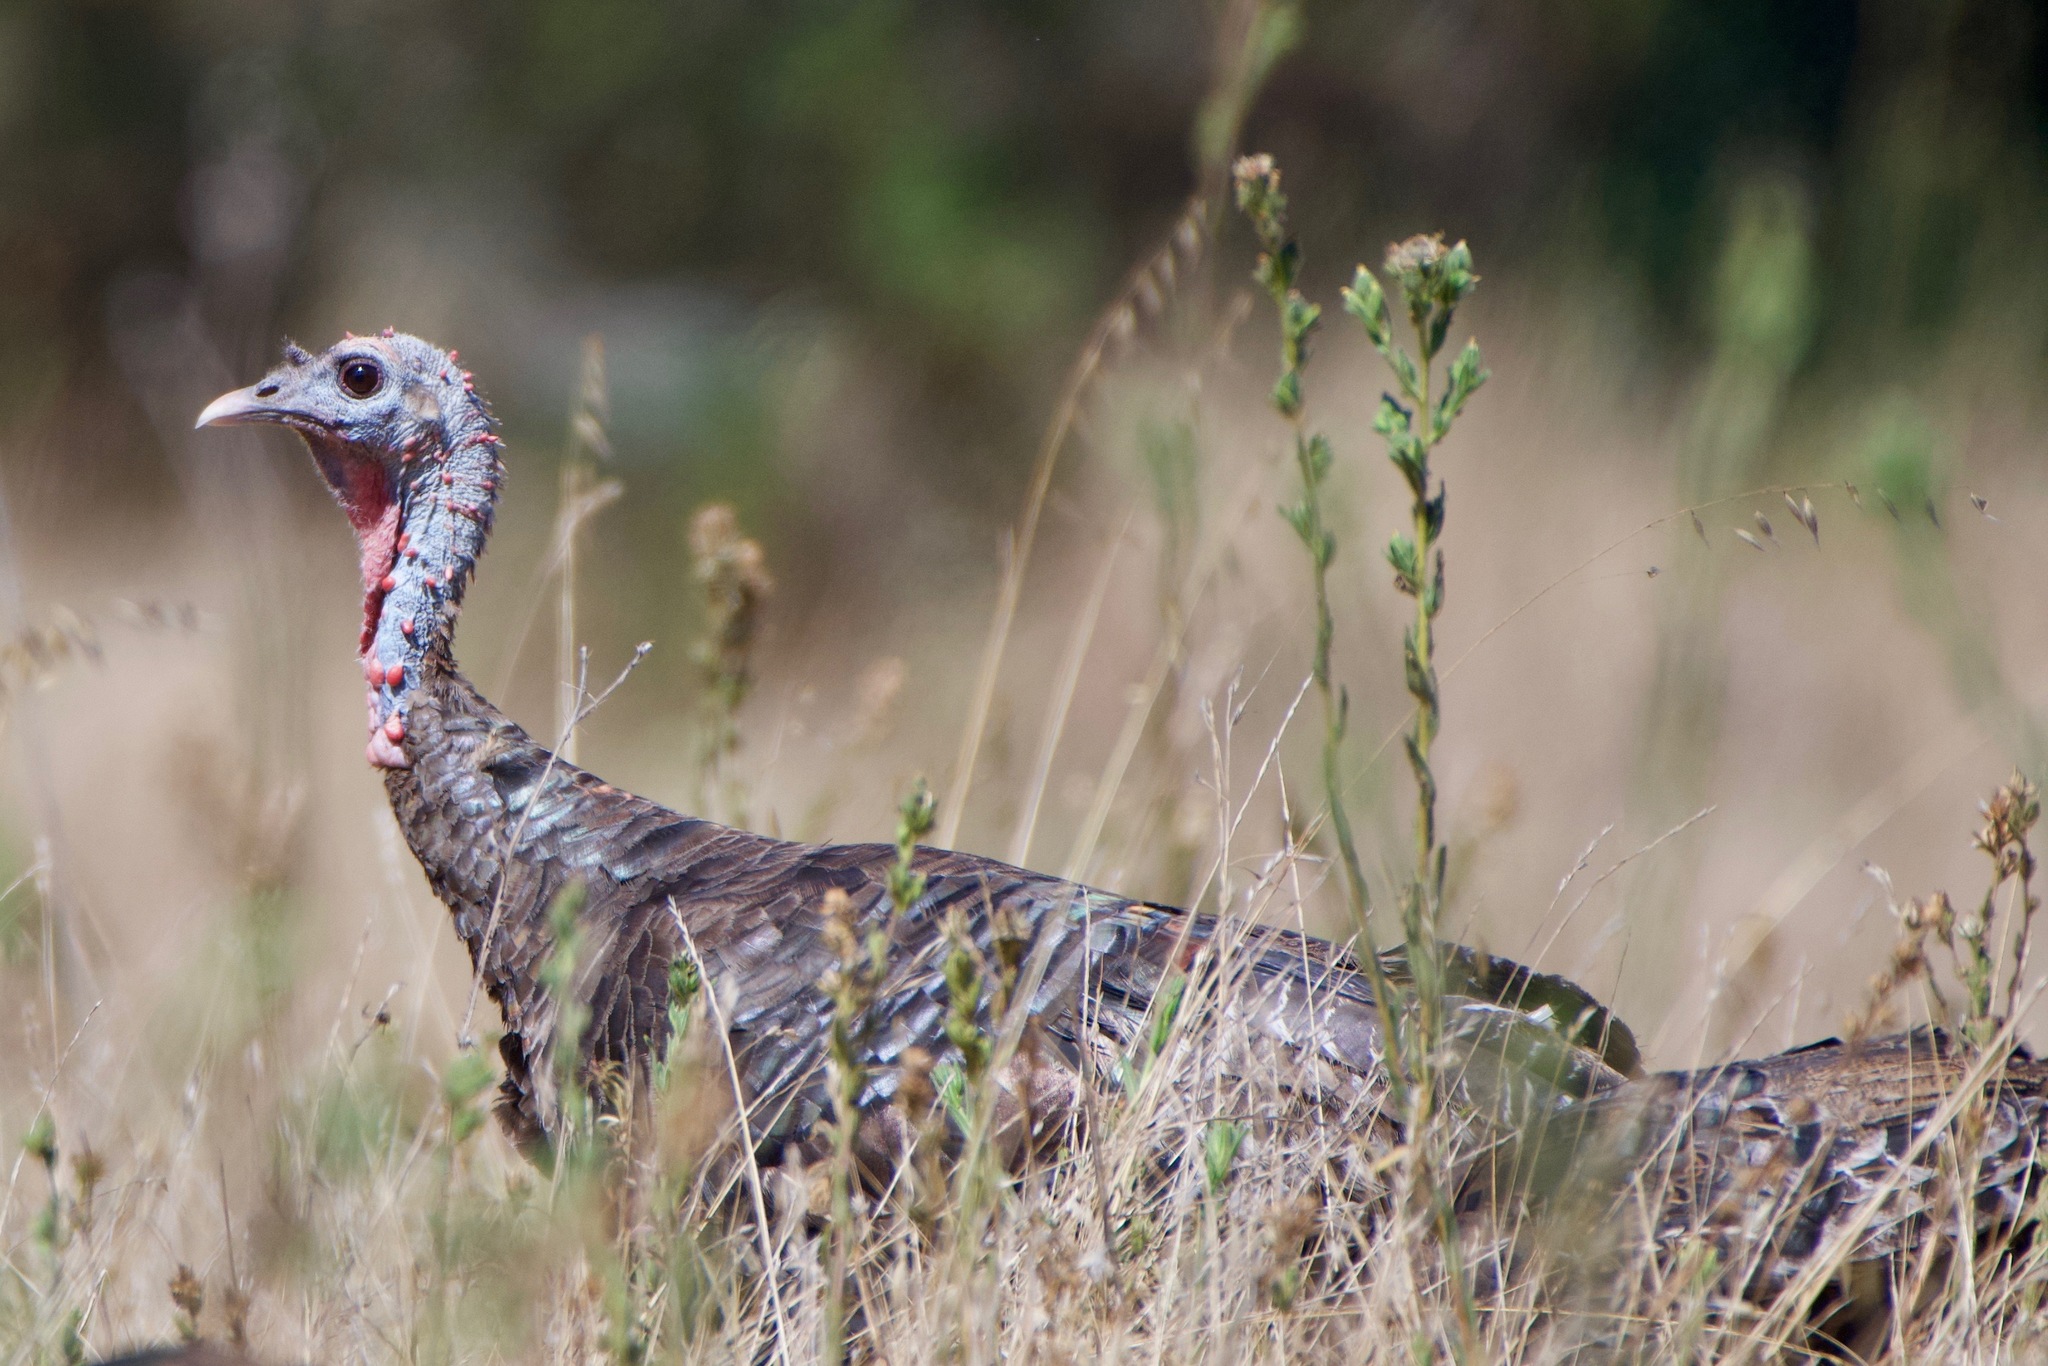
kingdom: Animalia
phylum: Chordata
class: Aves
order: Galliformes
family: Phasianidae
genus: Meleagris
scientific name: Meleagris gallopavo
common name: Wild turkey
